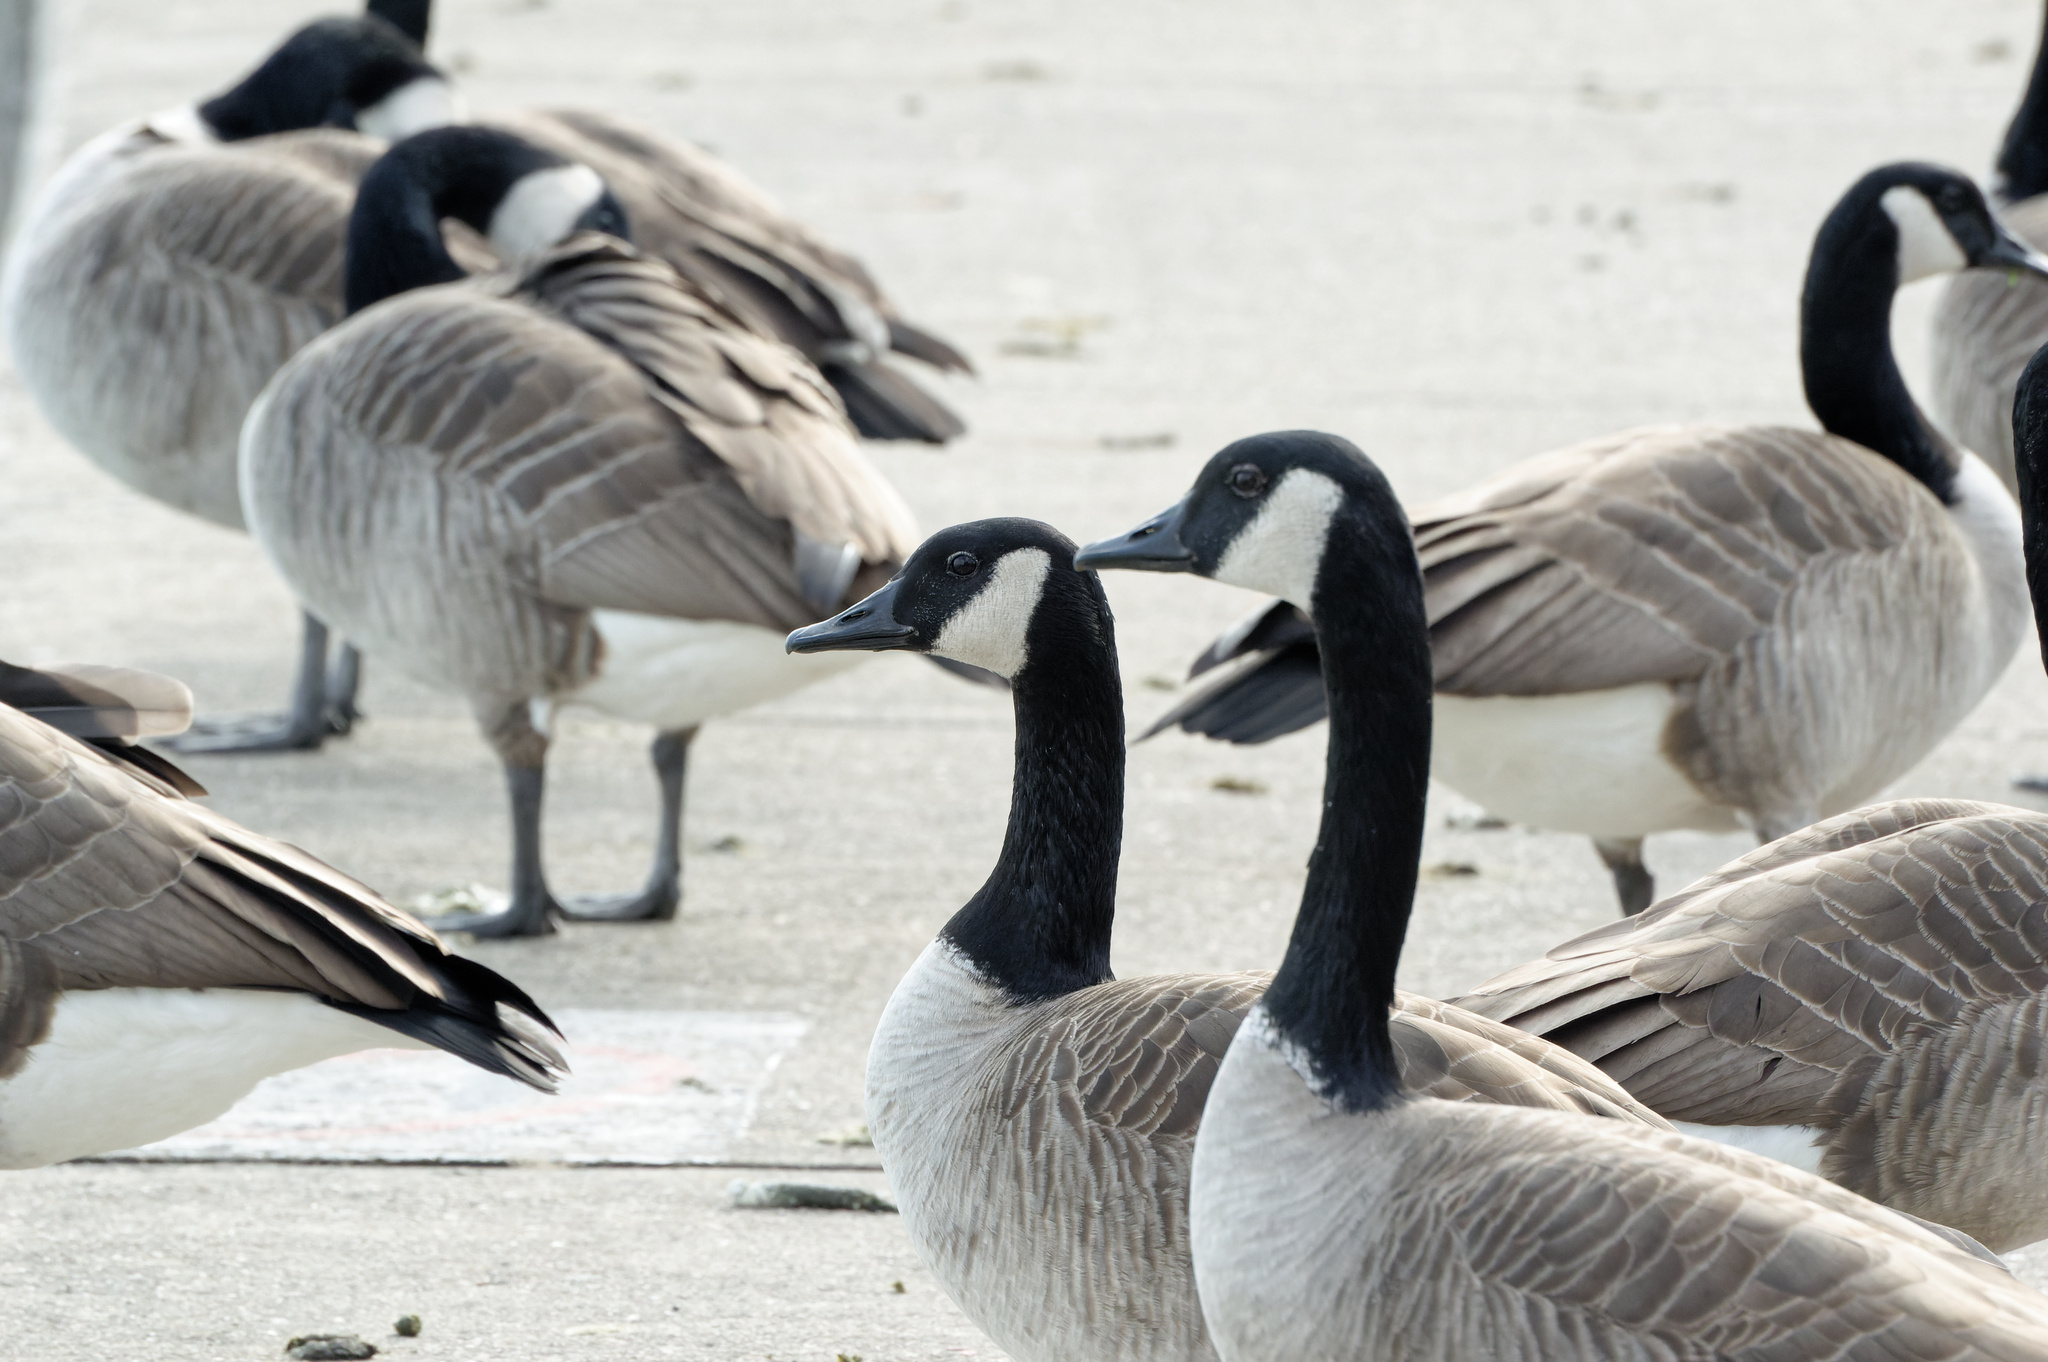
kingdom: Animalia
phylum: Chordata
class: Aves
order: Anseriformes
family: Anatidae
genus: Branta
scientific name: Branta canadensis
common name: Canada goose
